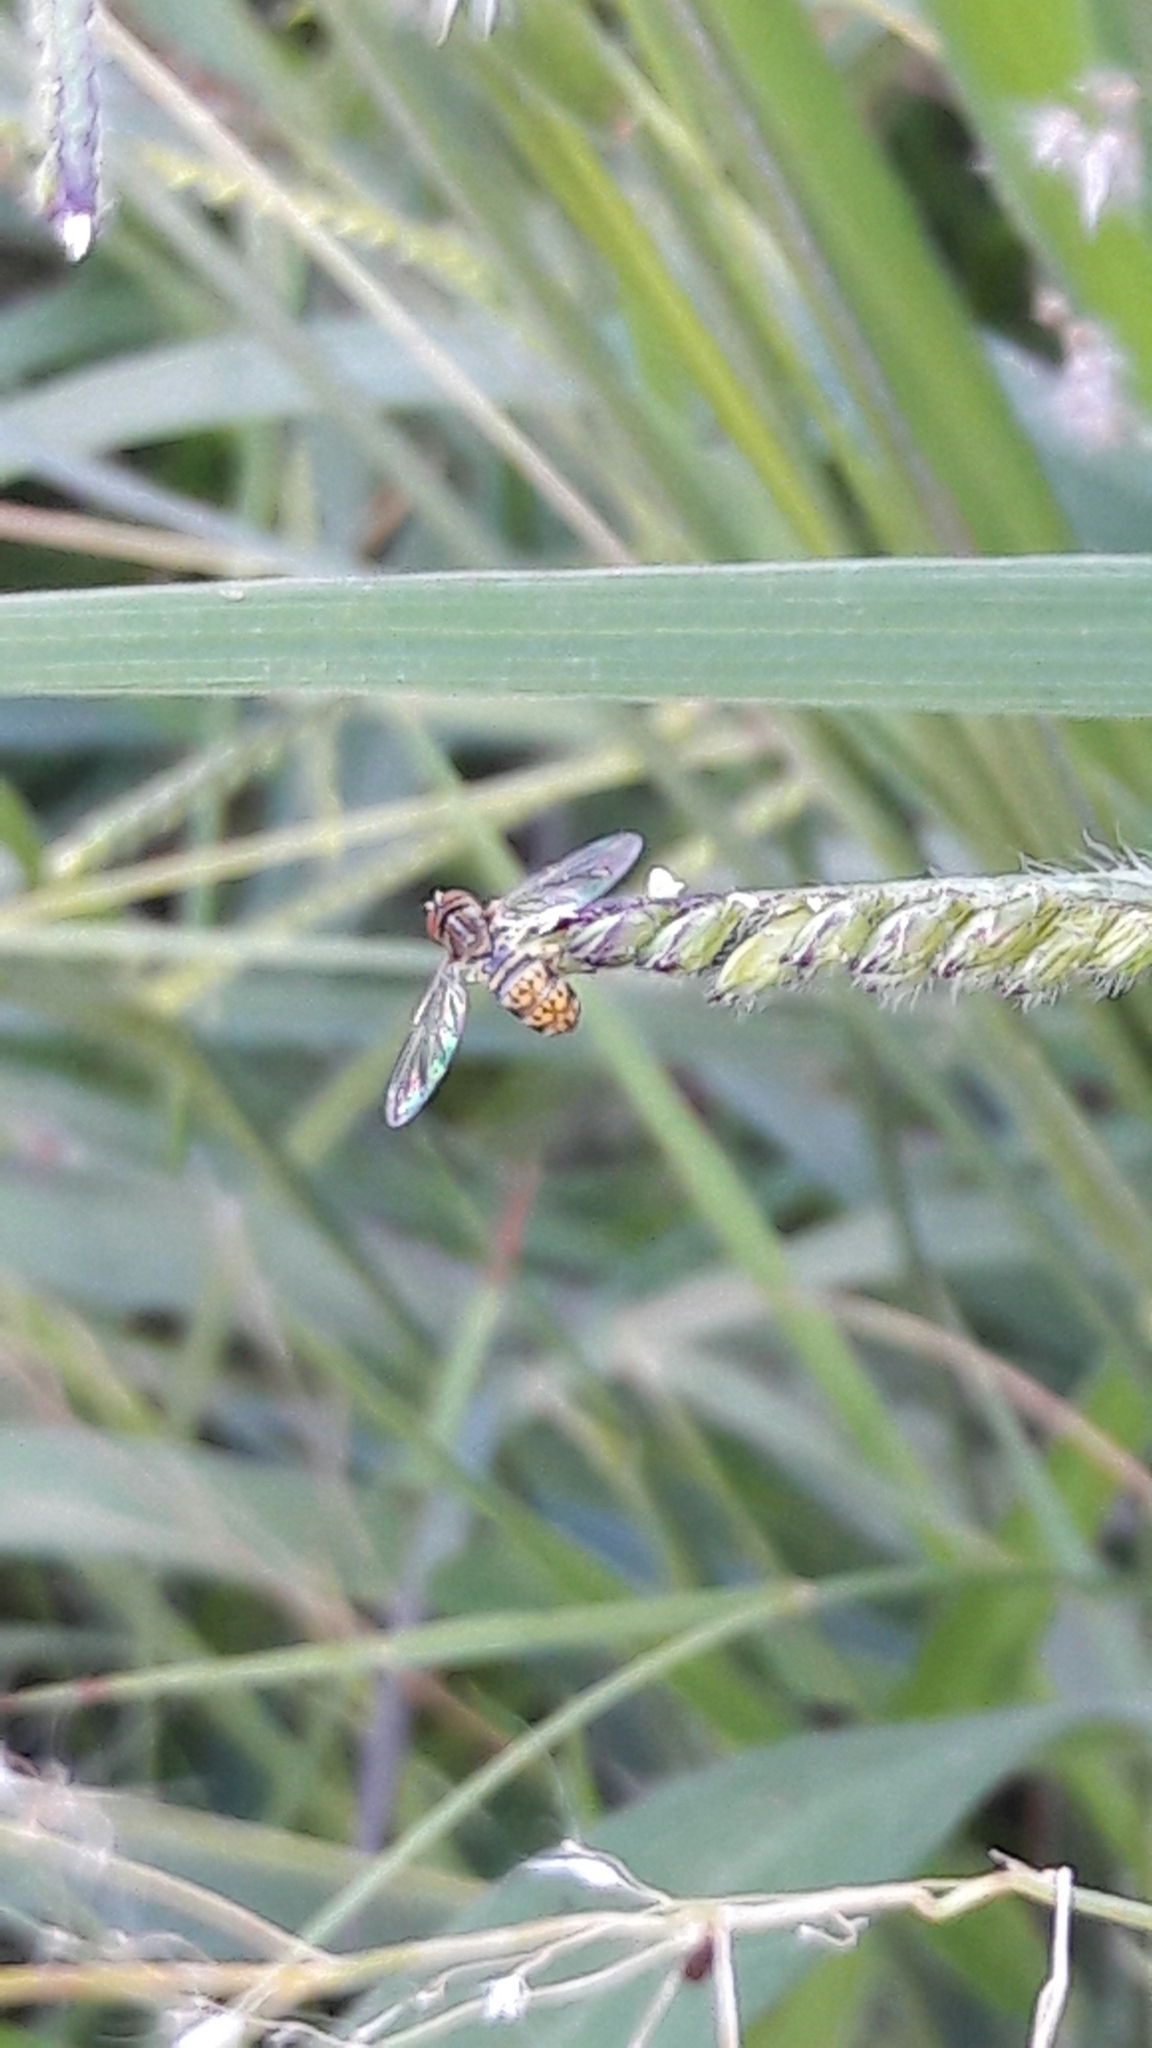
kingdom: Animalia
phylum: Arthropoda
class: Insecta
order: Diptera
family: Syrphidae
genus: Toxomerus
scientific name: Toxomerus
